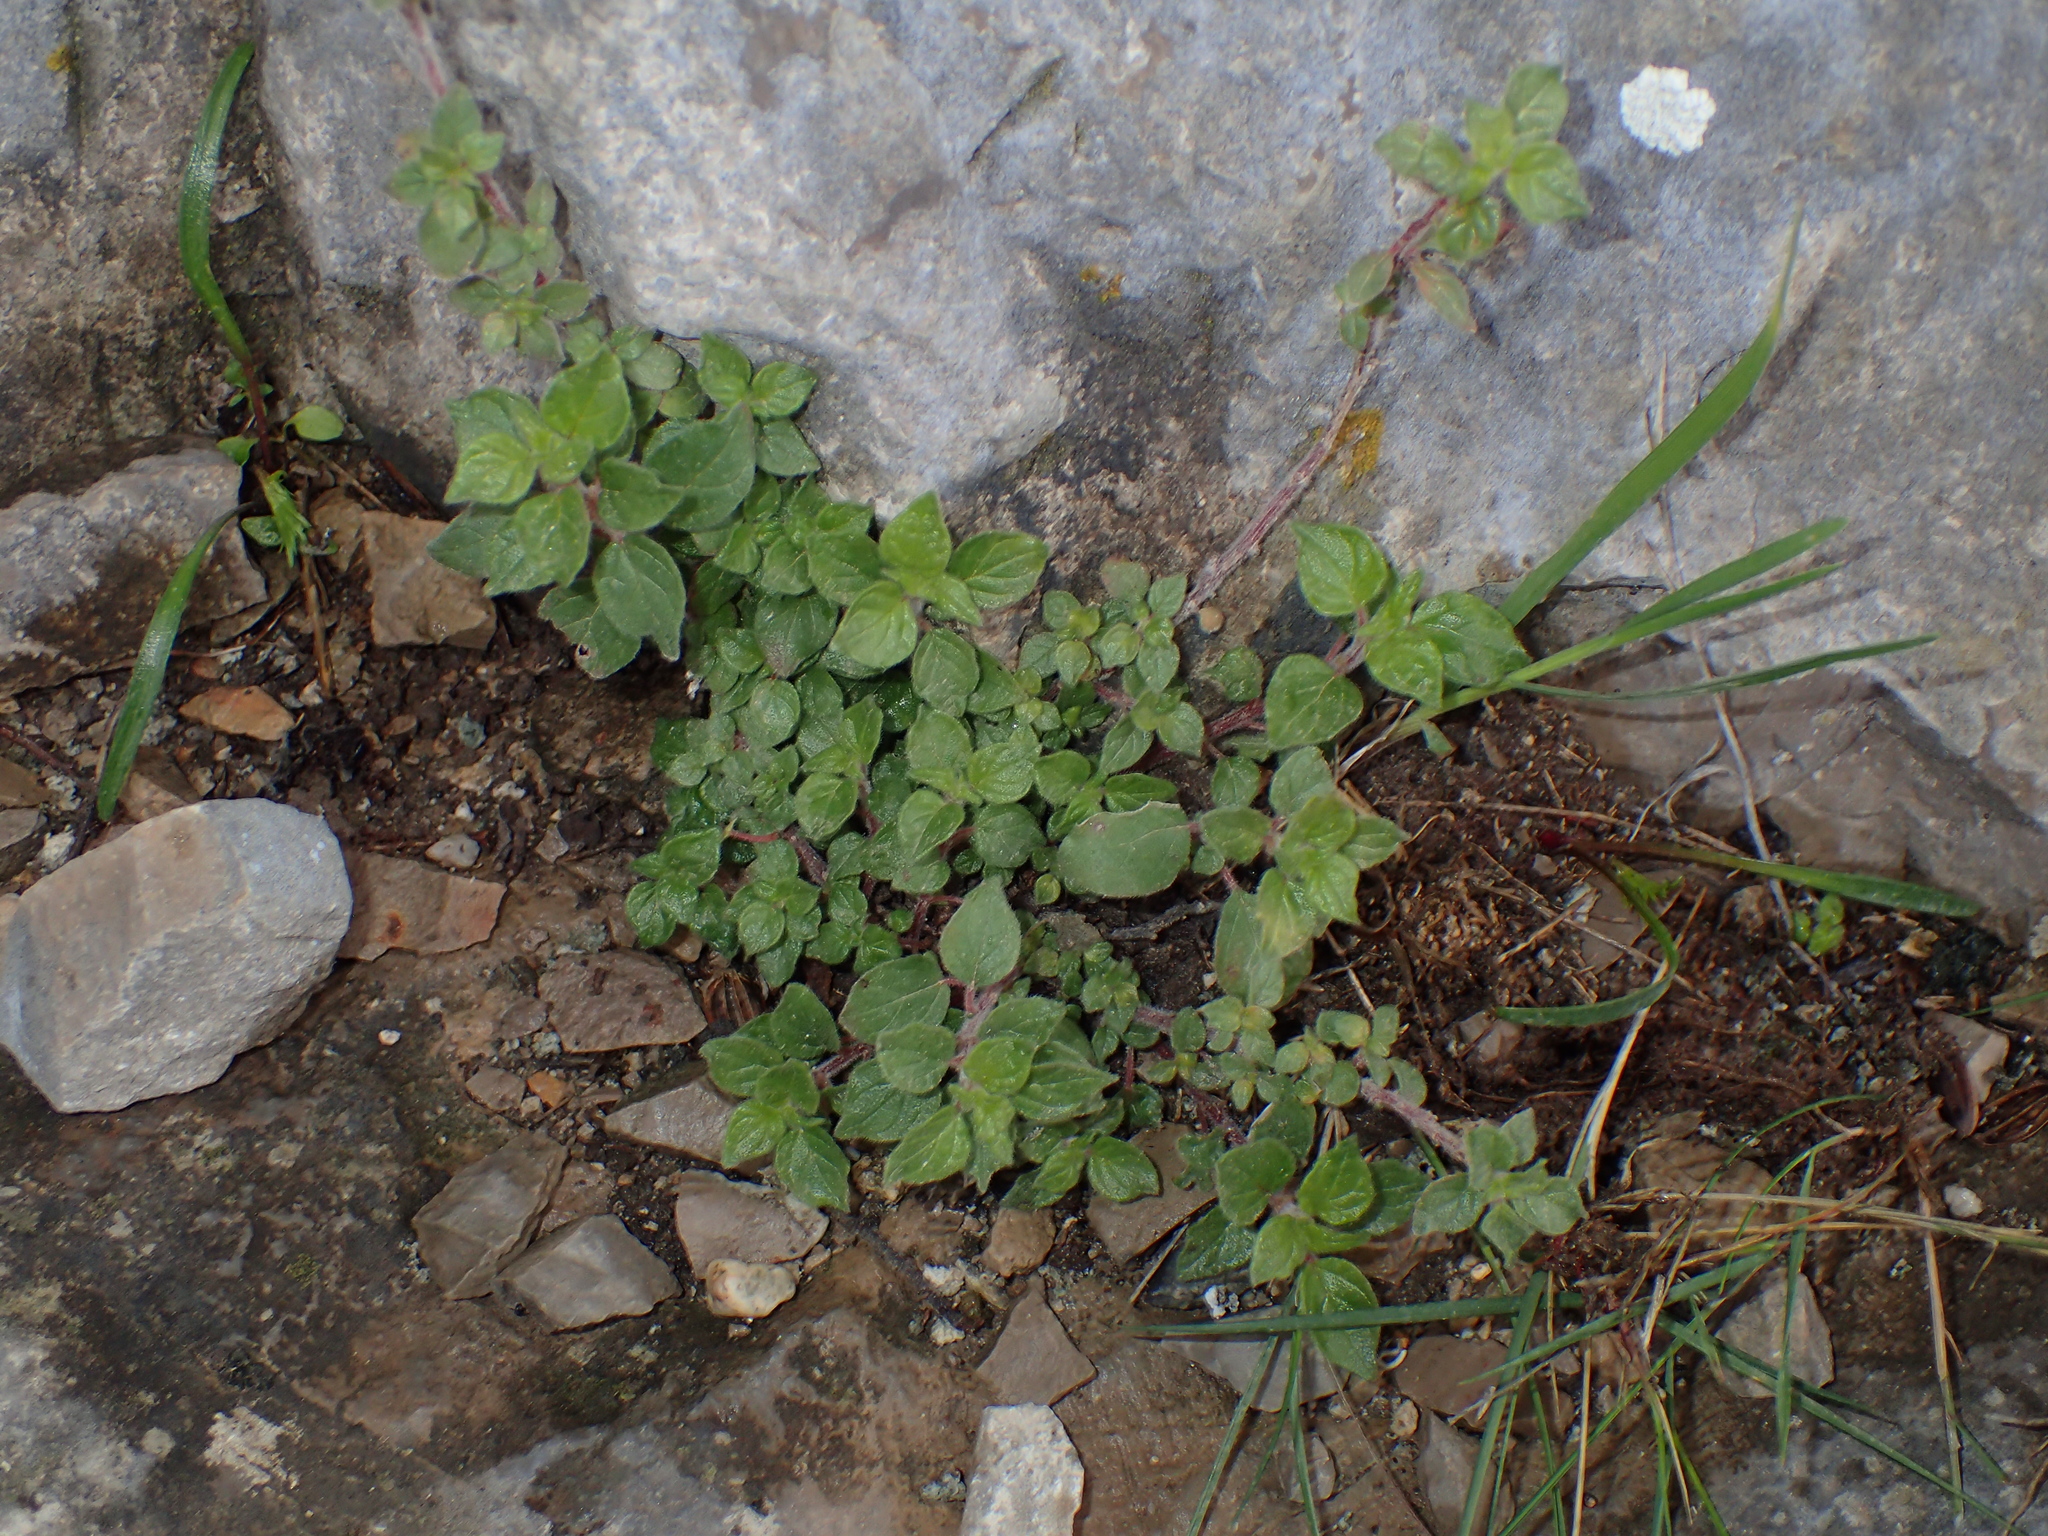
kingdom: Plantae
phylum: Tracheophyta
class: Magnoliopsida
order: Rosales
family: Urticaceae
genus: Parietaria
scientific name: Parietaria judaica
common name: Pellitory-of-the-wall
